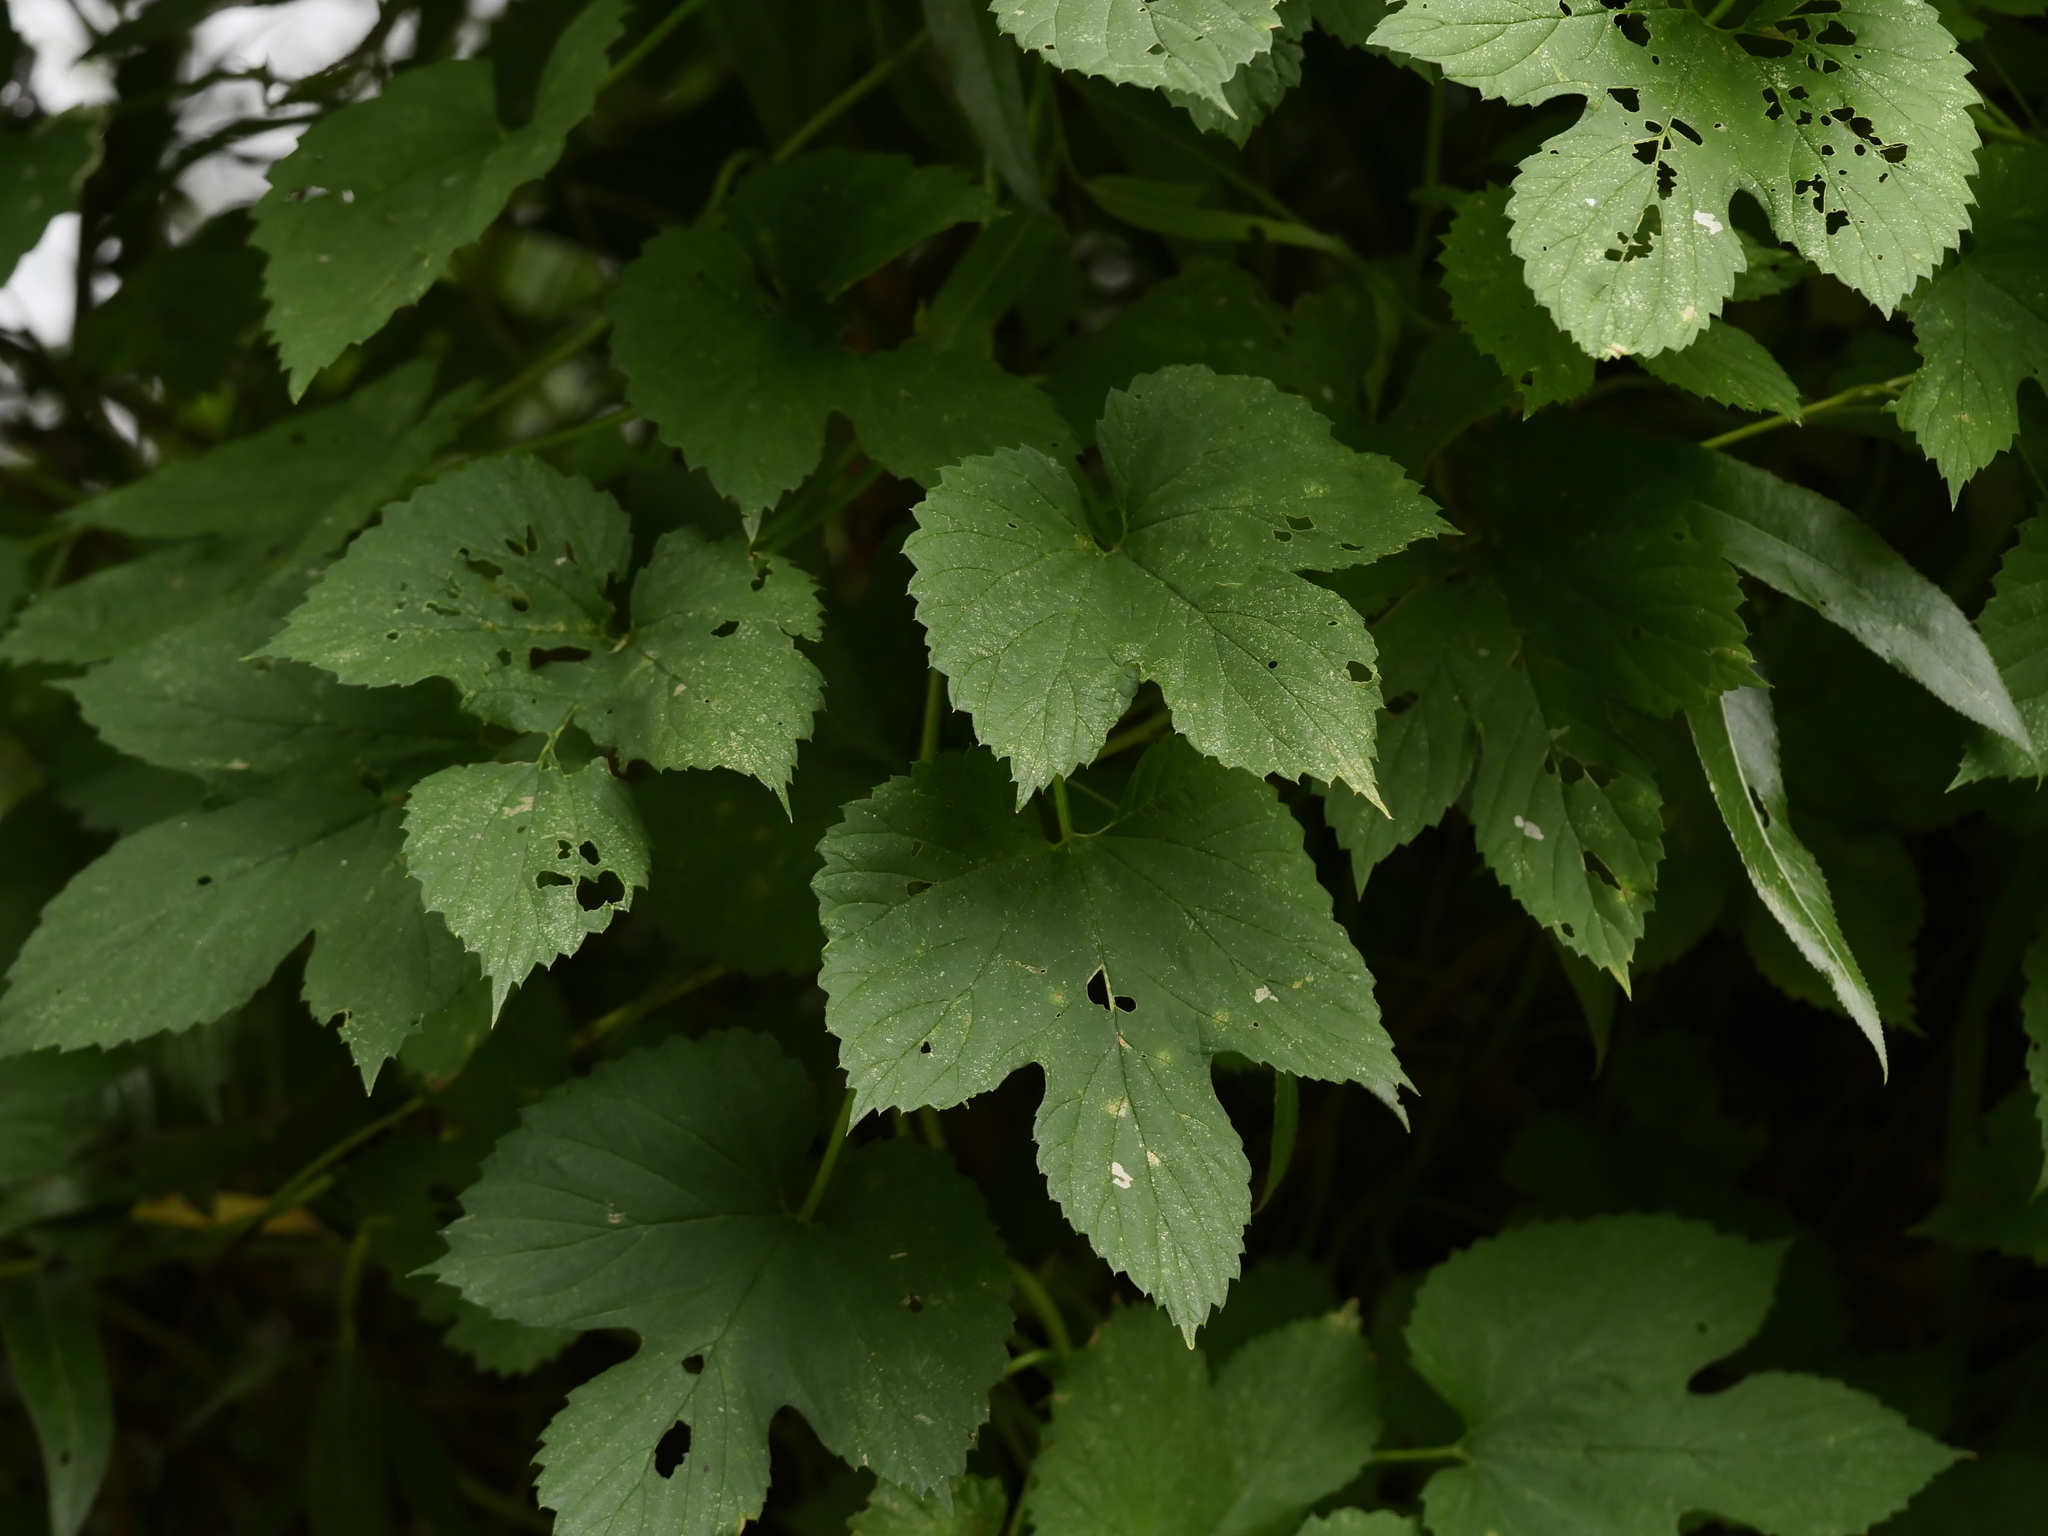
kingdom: Plantae
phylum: Tracheophyta
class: Magnoliopsida
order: Rosales
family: Cannabaceae
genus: Humulus
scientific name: Humulus lupulus
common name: Hop
